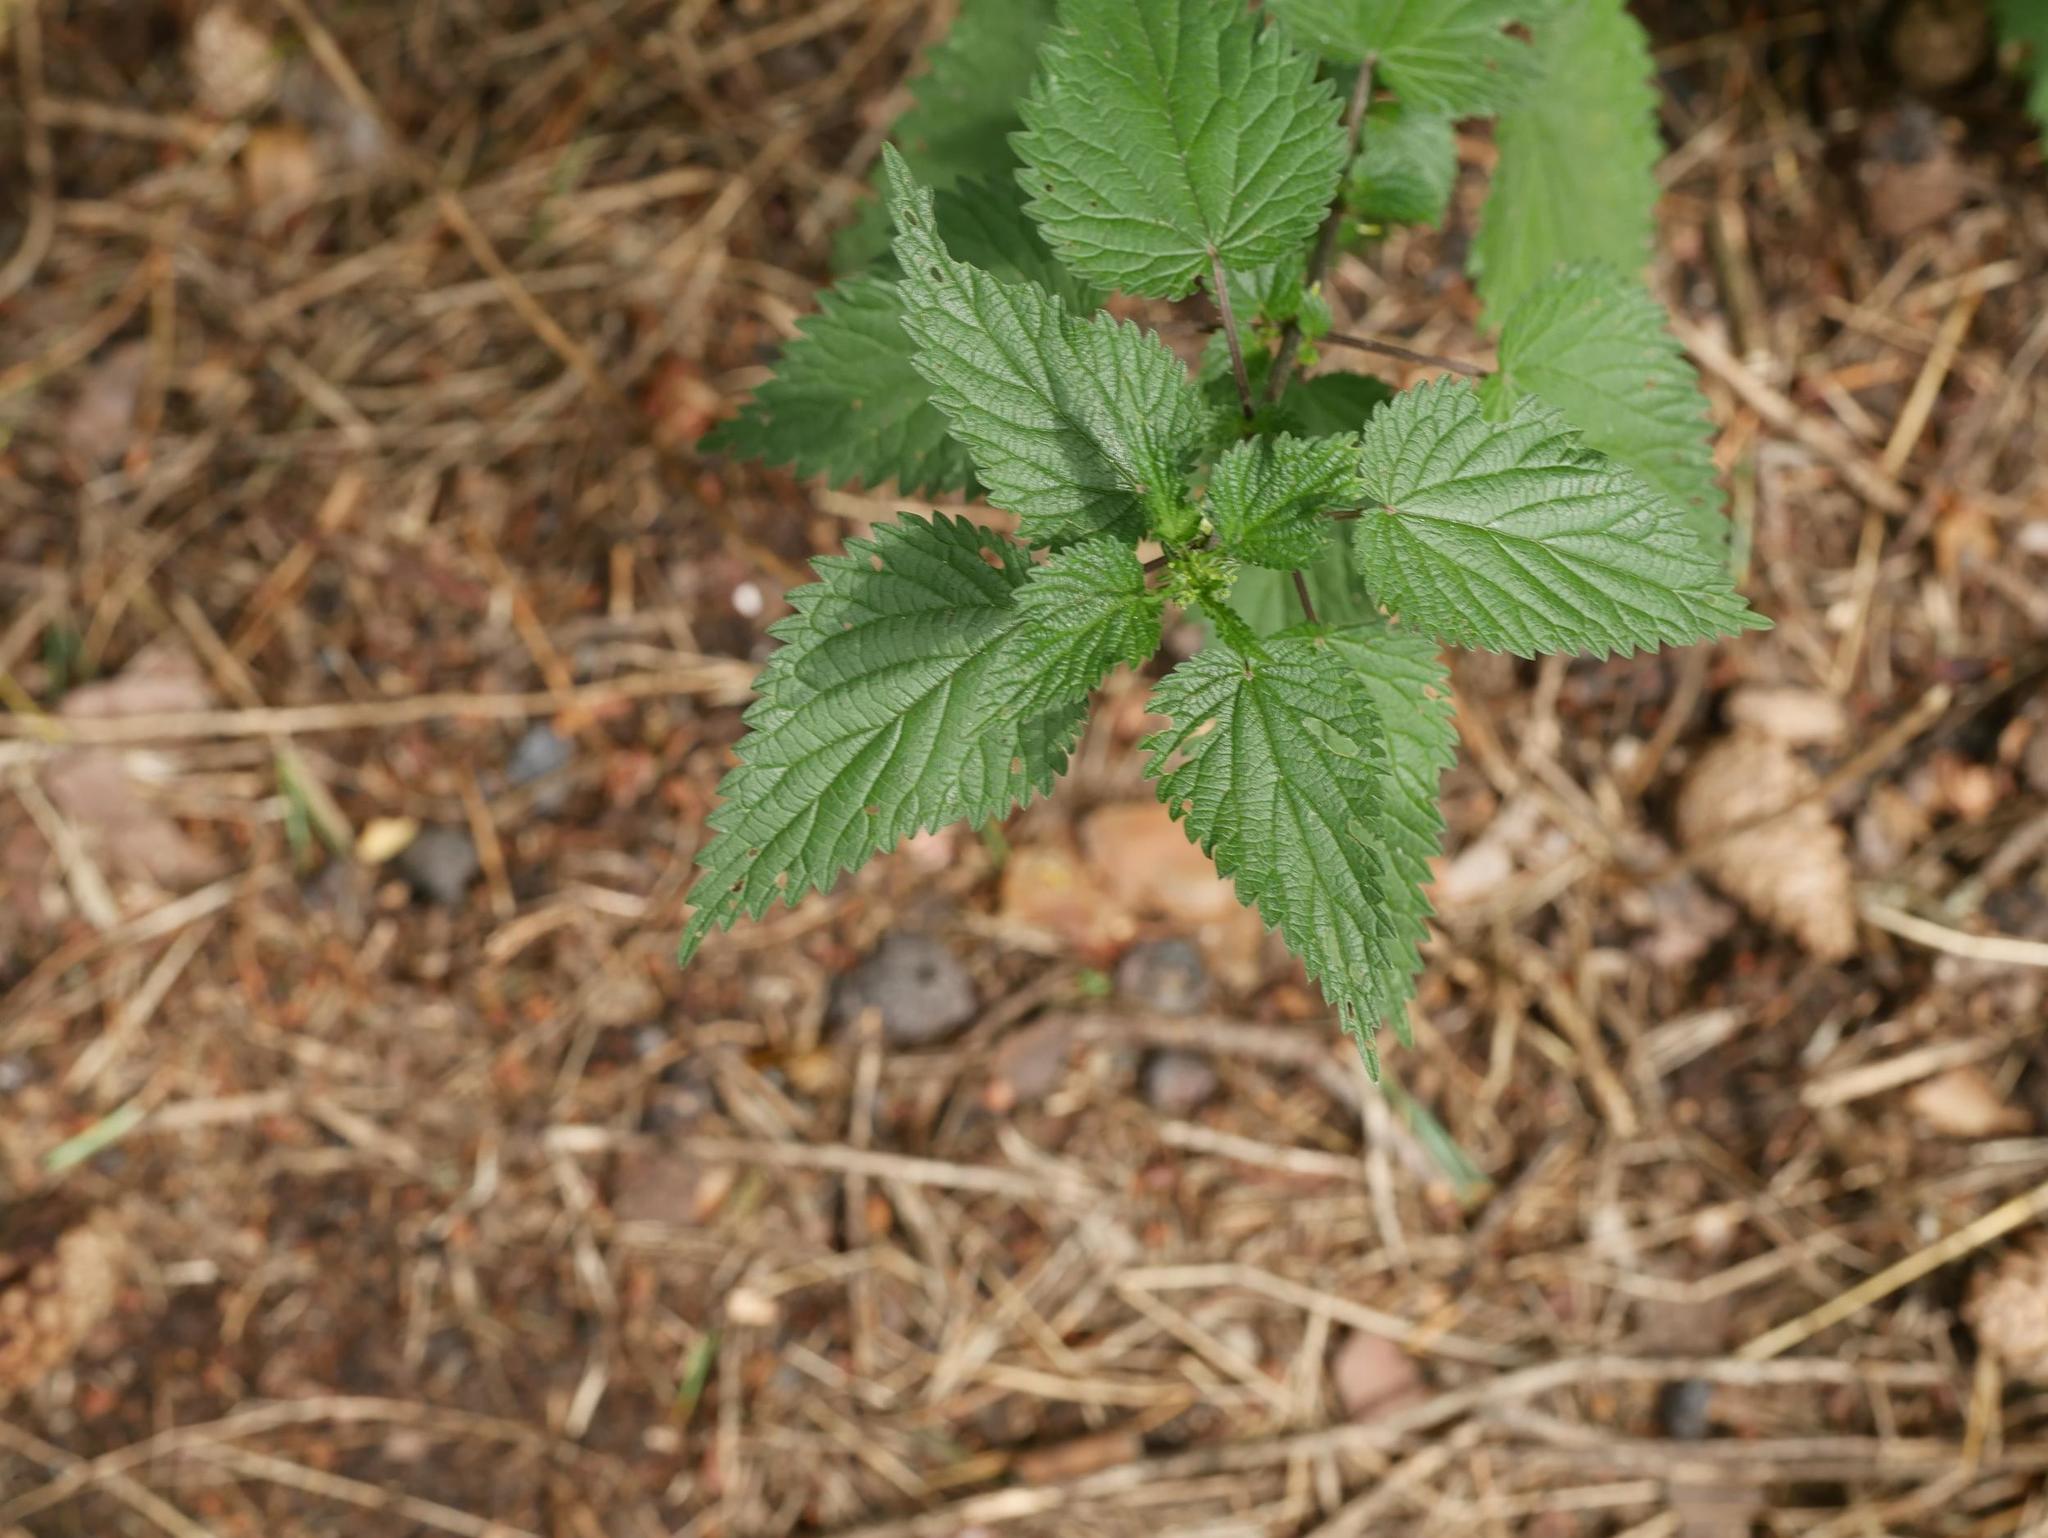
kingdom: Plantae
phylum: Tracheophyta
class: Magnoliopsida
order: Rosales
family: Urticaceae
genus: Urtica
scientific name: Urtica dioica
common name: Common nettle
